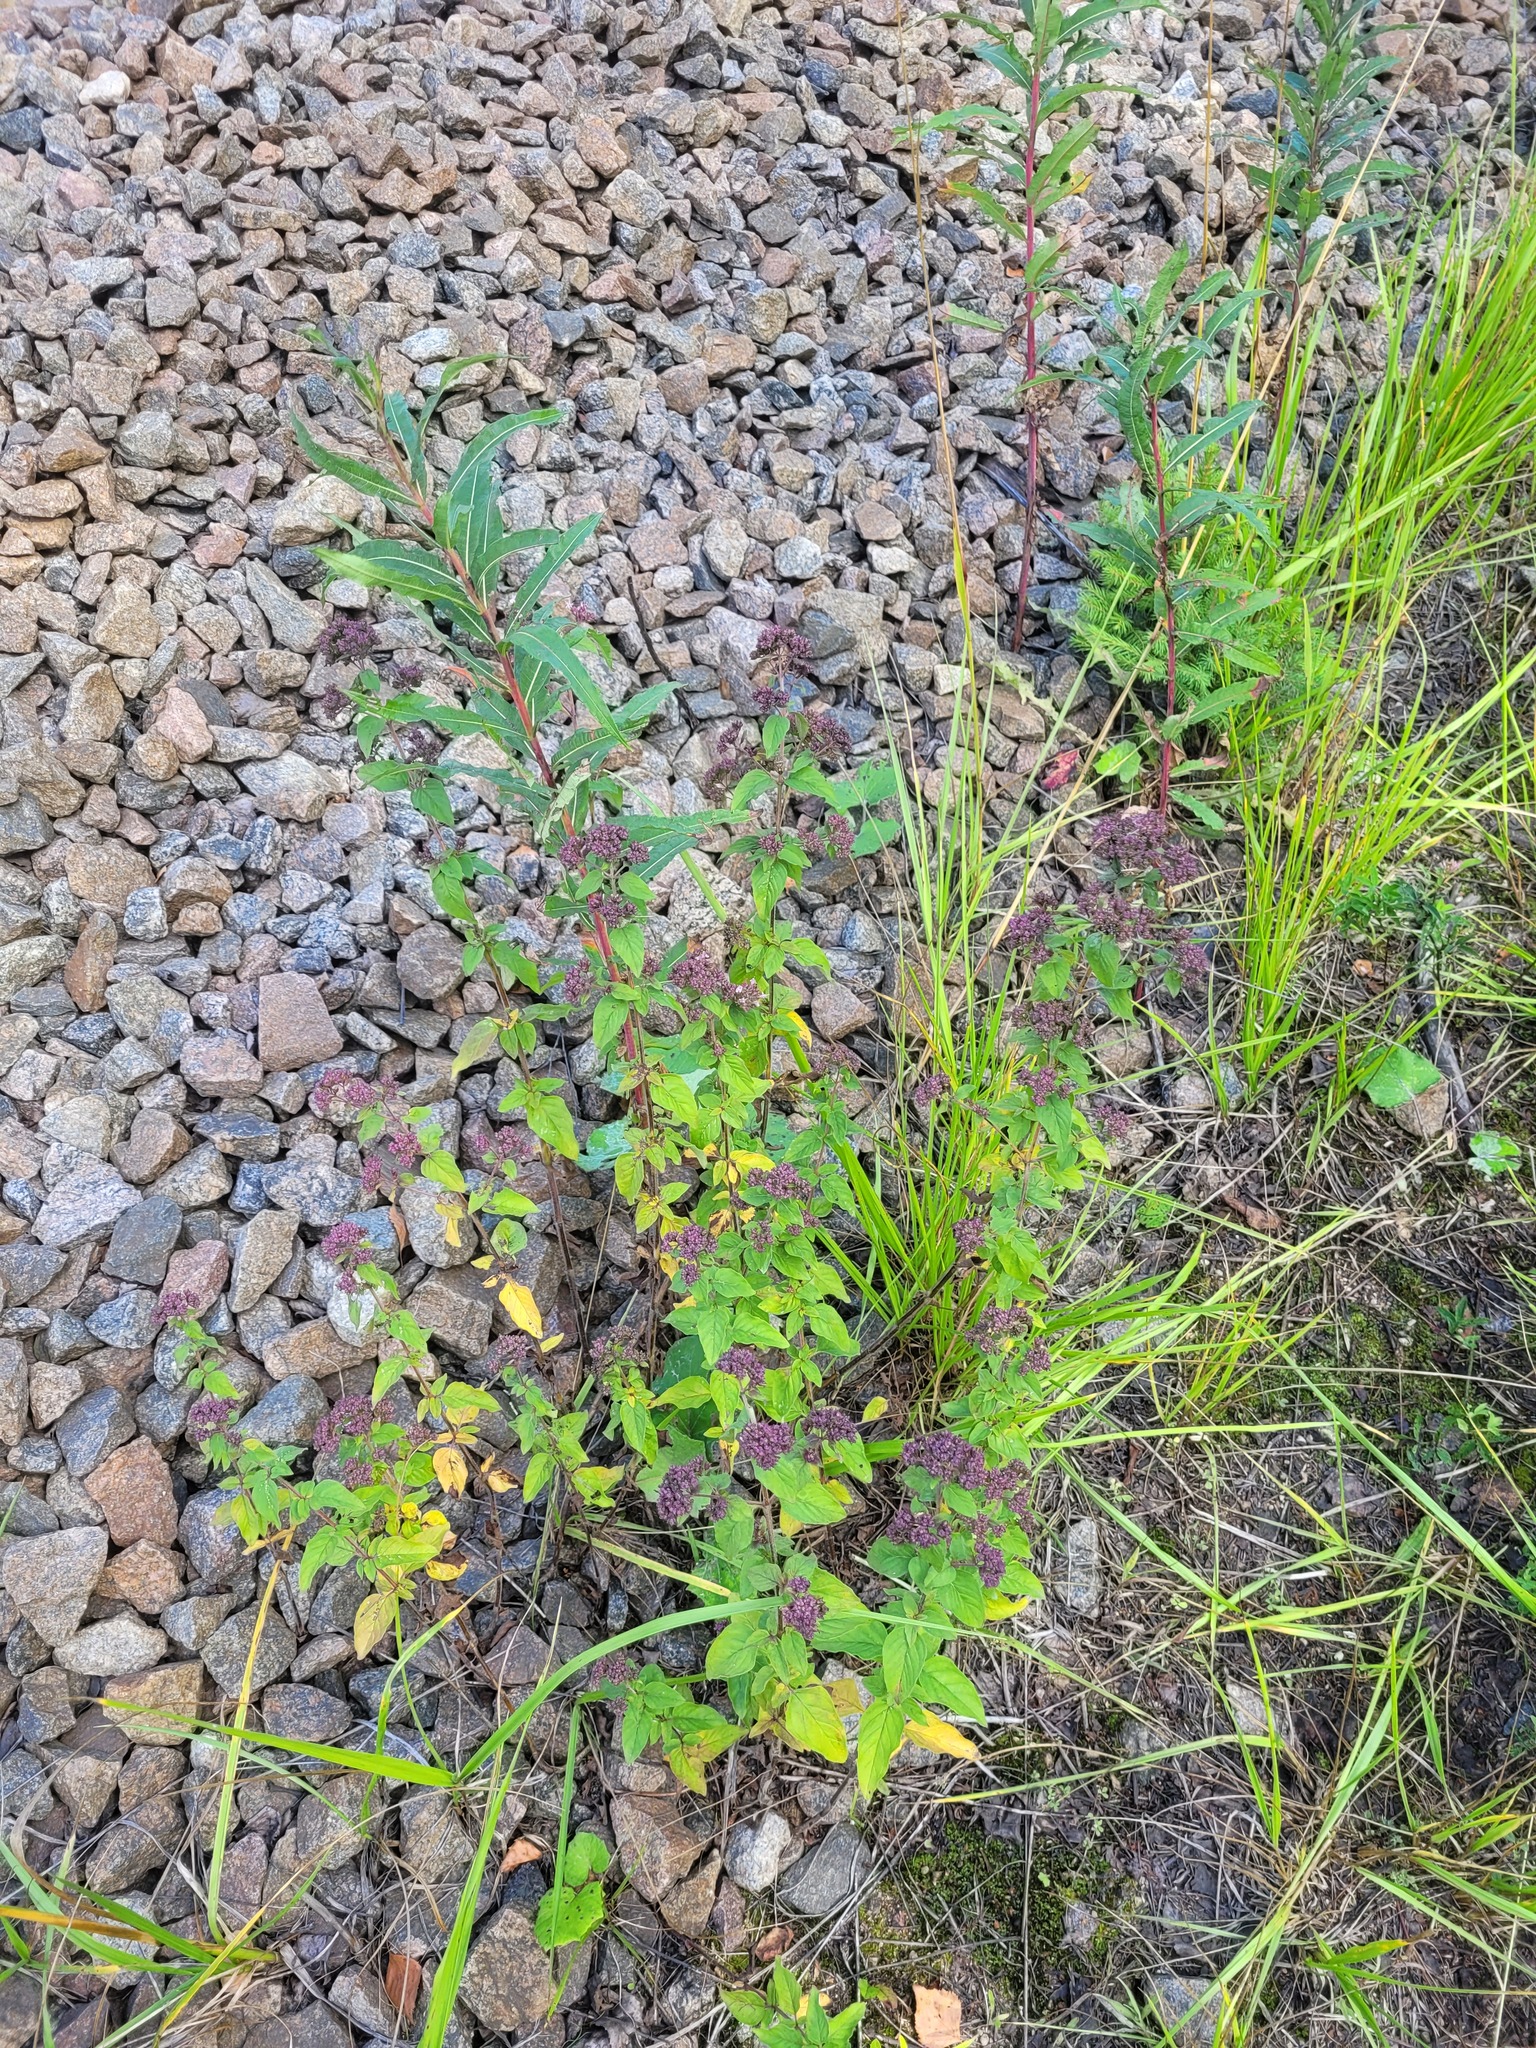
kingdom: Plantae
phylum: Tracheophyta
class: Magnoliopsida
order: Lamiales
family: Lamiaceae
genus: Origanum
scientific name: Origanum vulgare
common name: Wild marjoram
